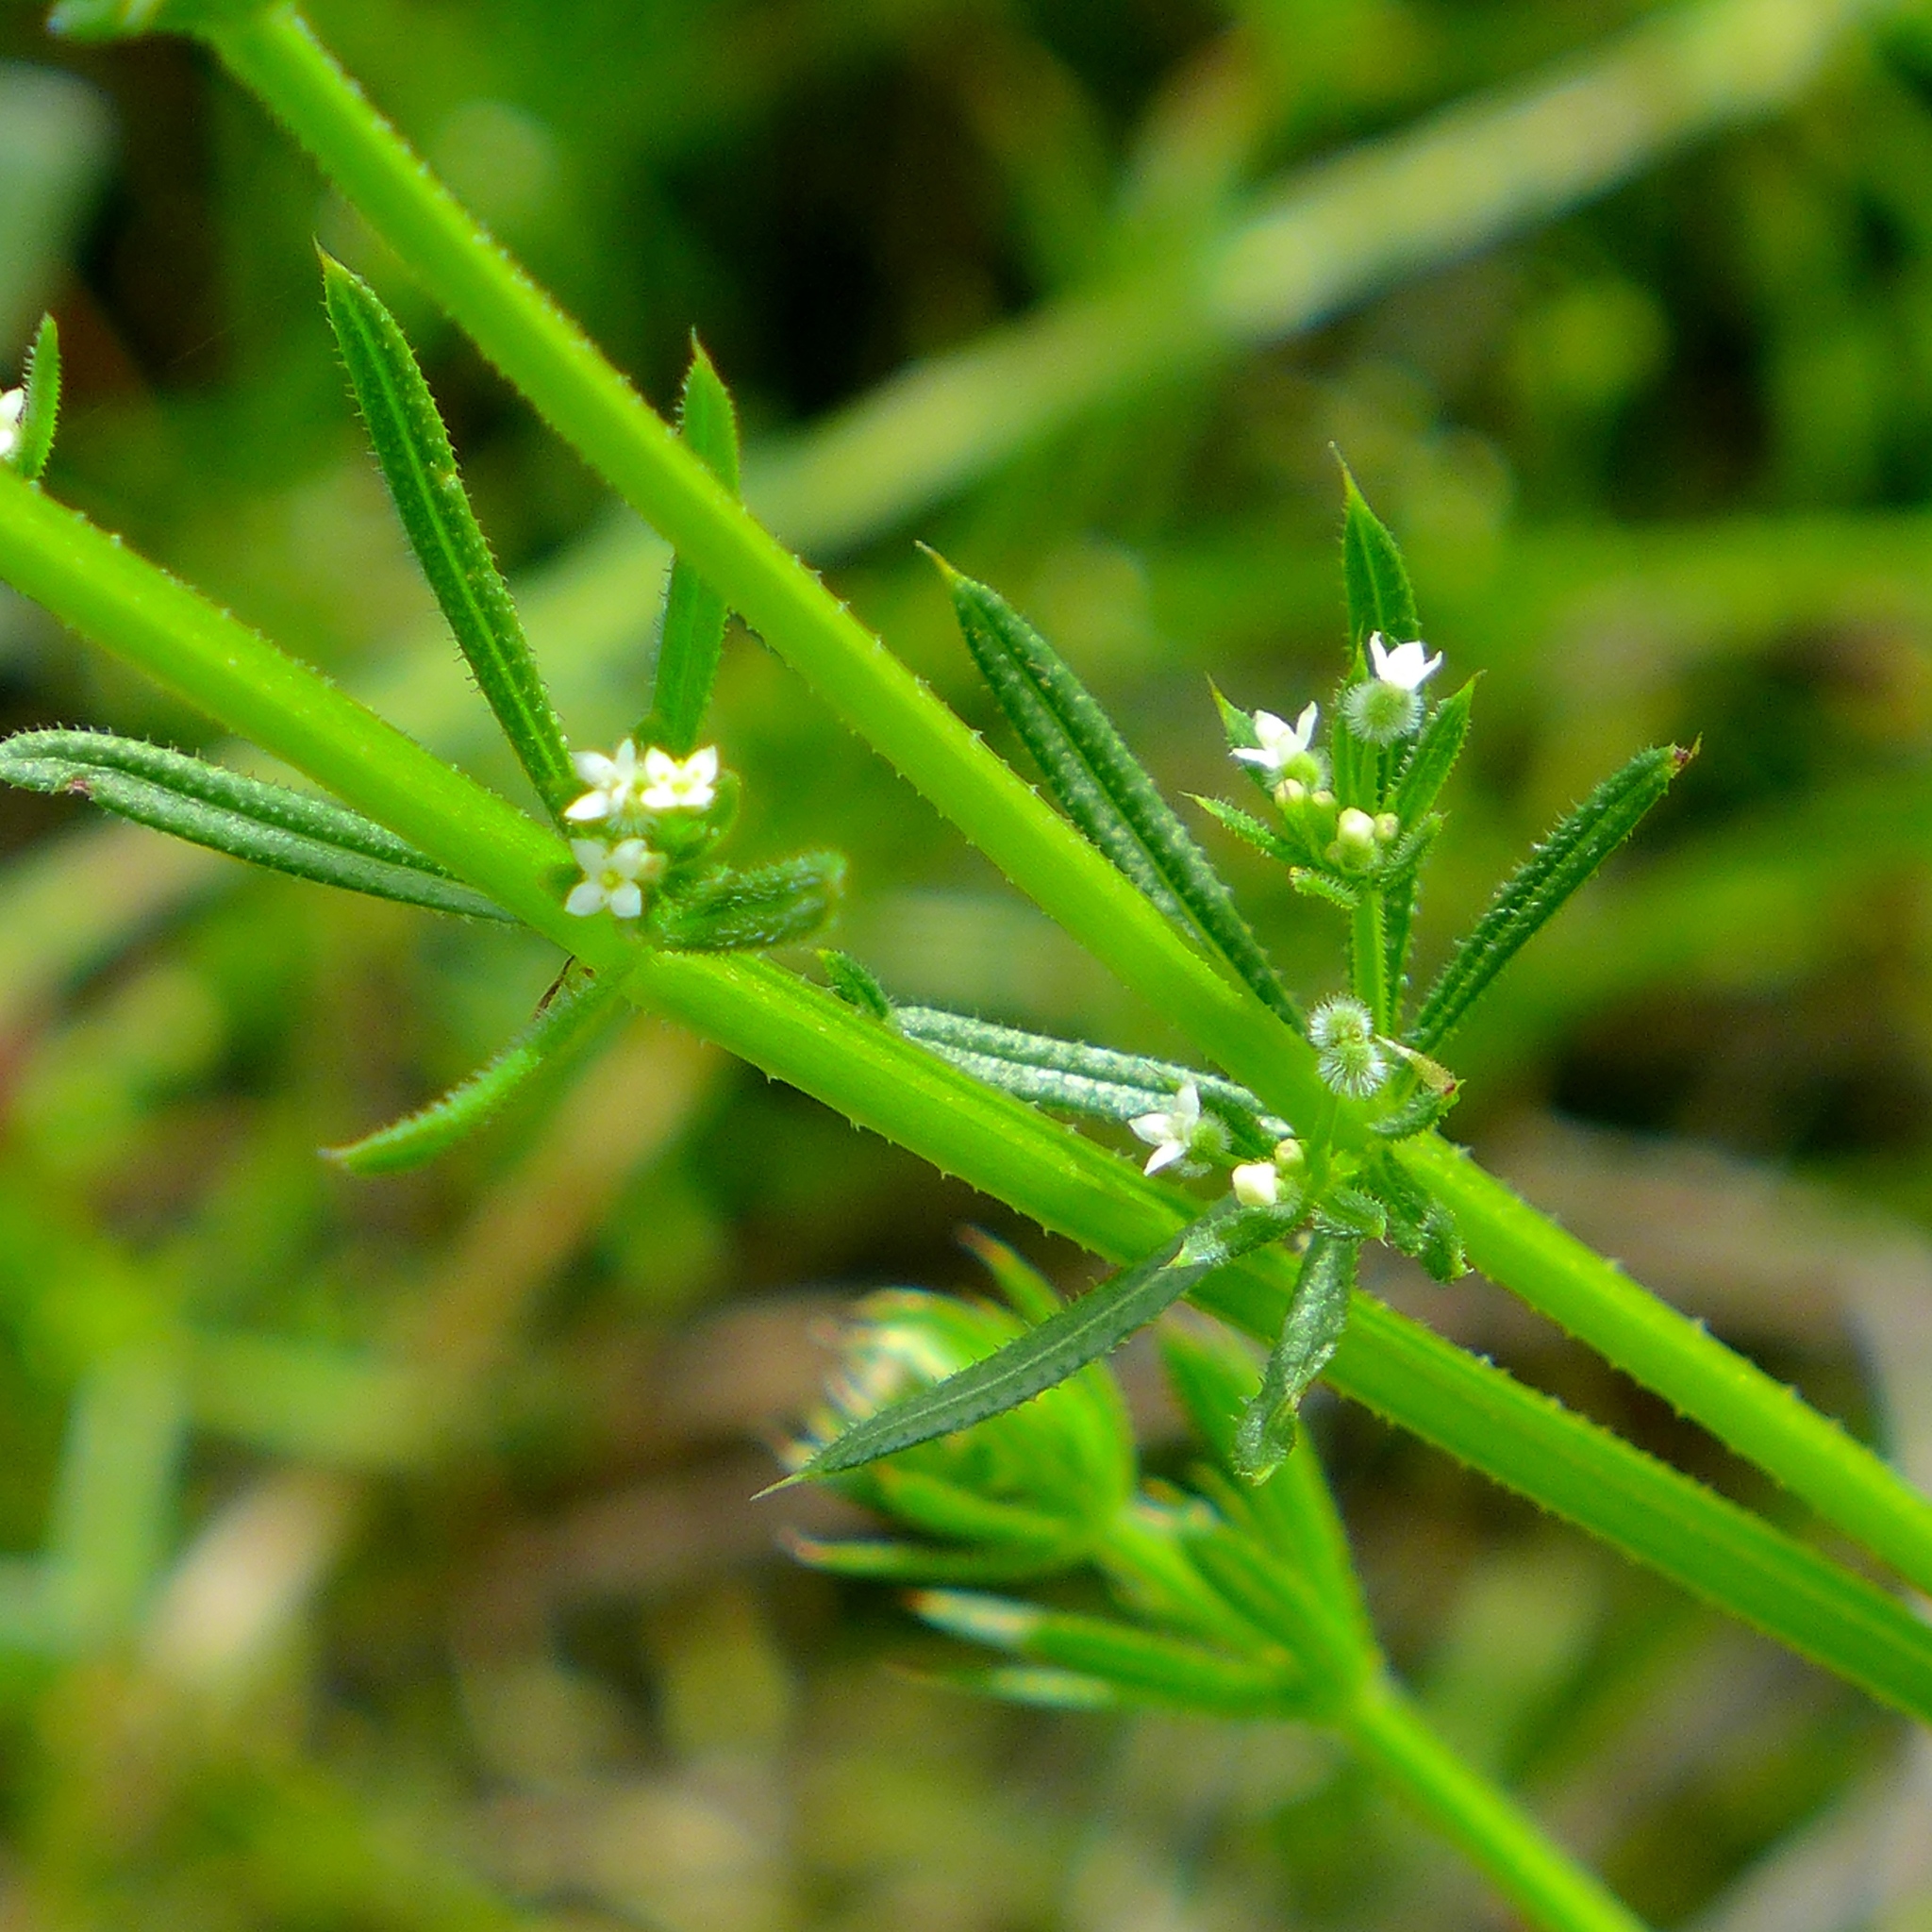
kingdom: Plantae
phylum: Tracheophyta
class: Magnoliopsida
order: Gentianales
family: Rubiaceae
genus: Galium
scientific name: Galium aparine
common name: Cleavers
